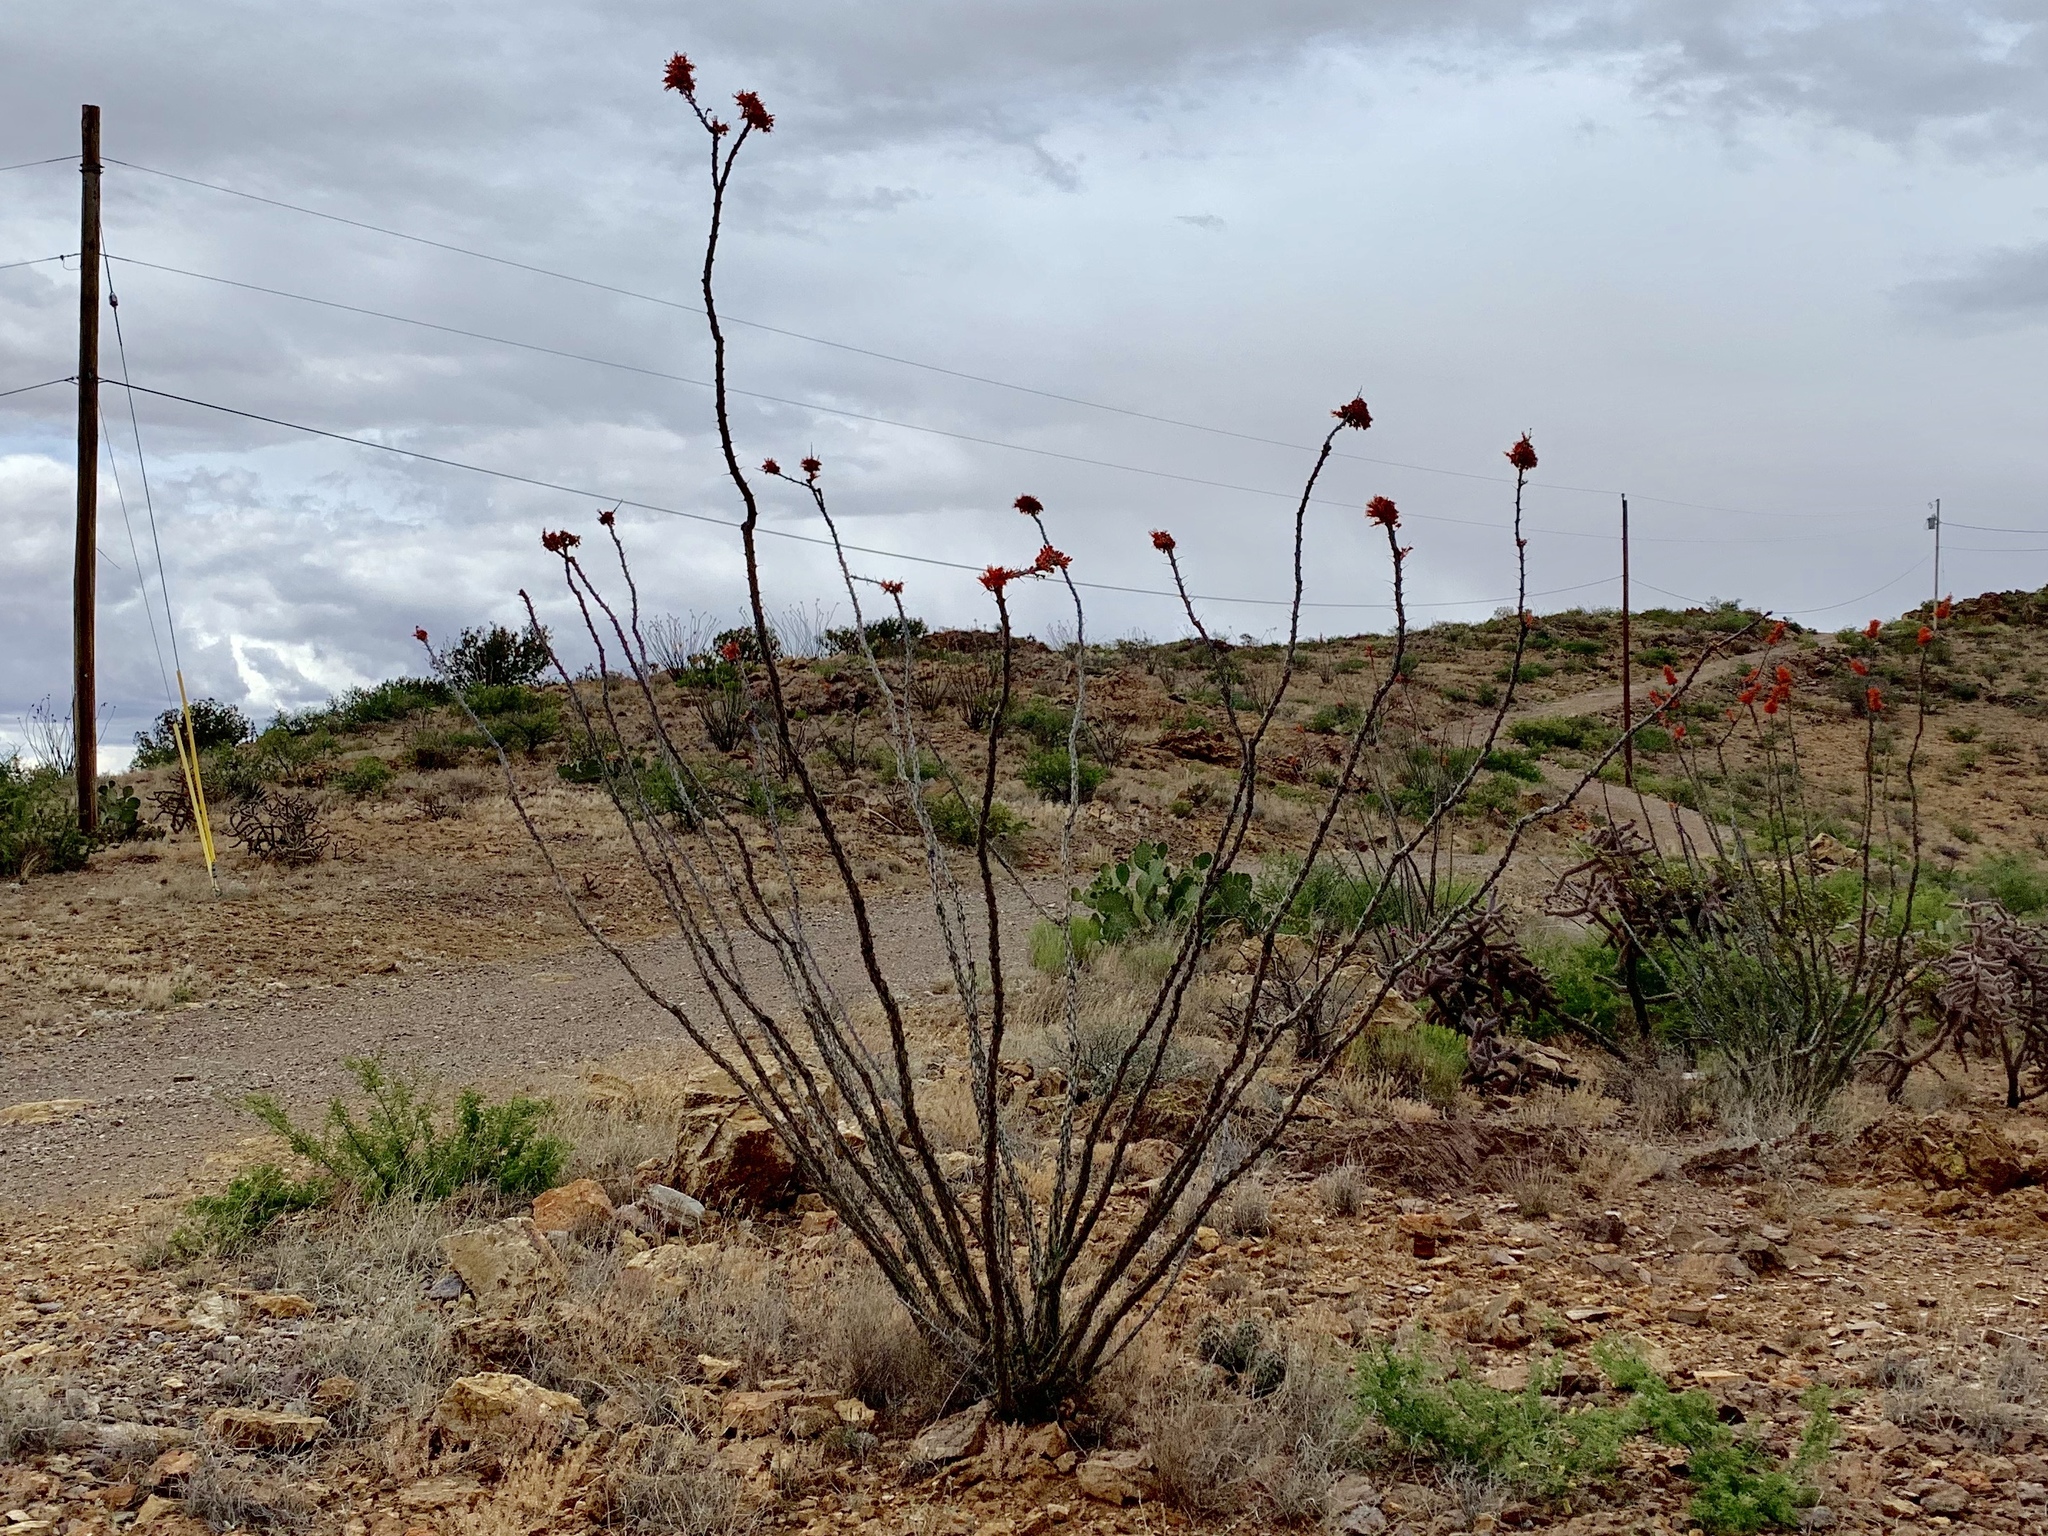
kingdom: Plantae
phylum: Tracheophyta
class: Magnoliopsida
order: Ericales
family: Fouquieriaceae
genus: Fouquieria
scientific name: Fouquieria splendens
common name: Vine-cactus
